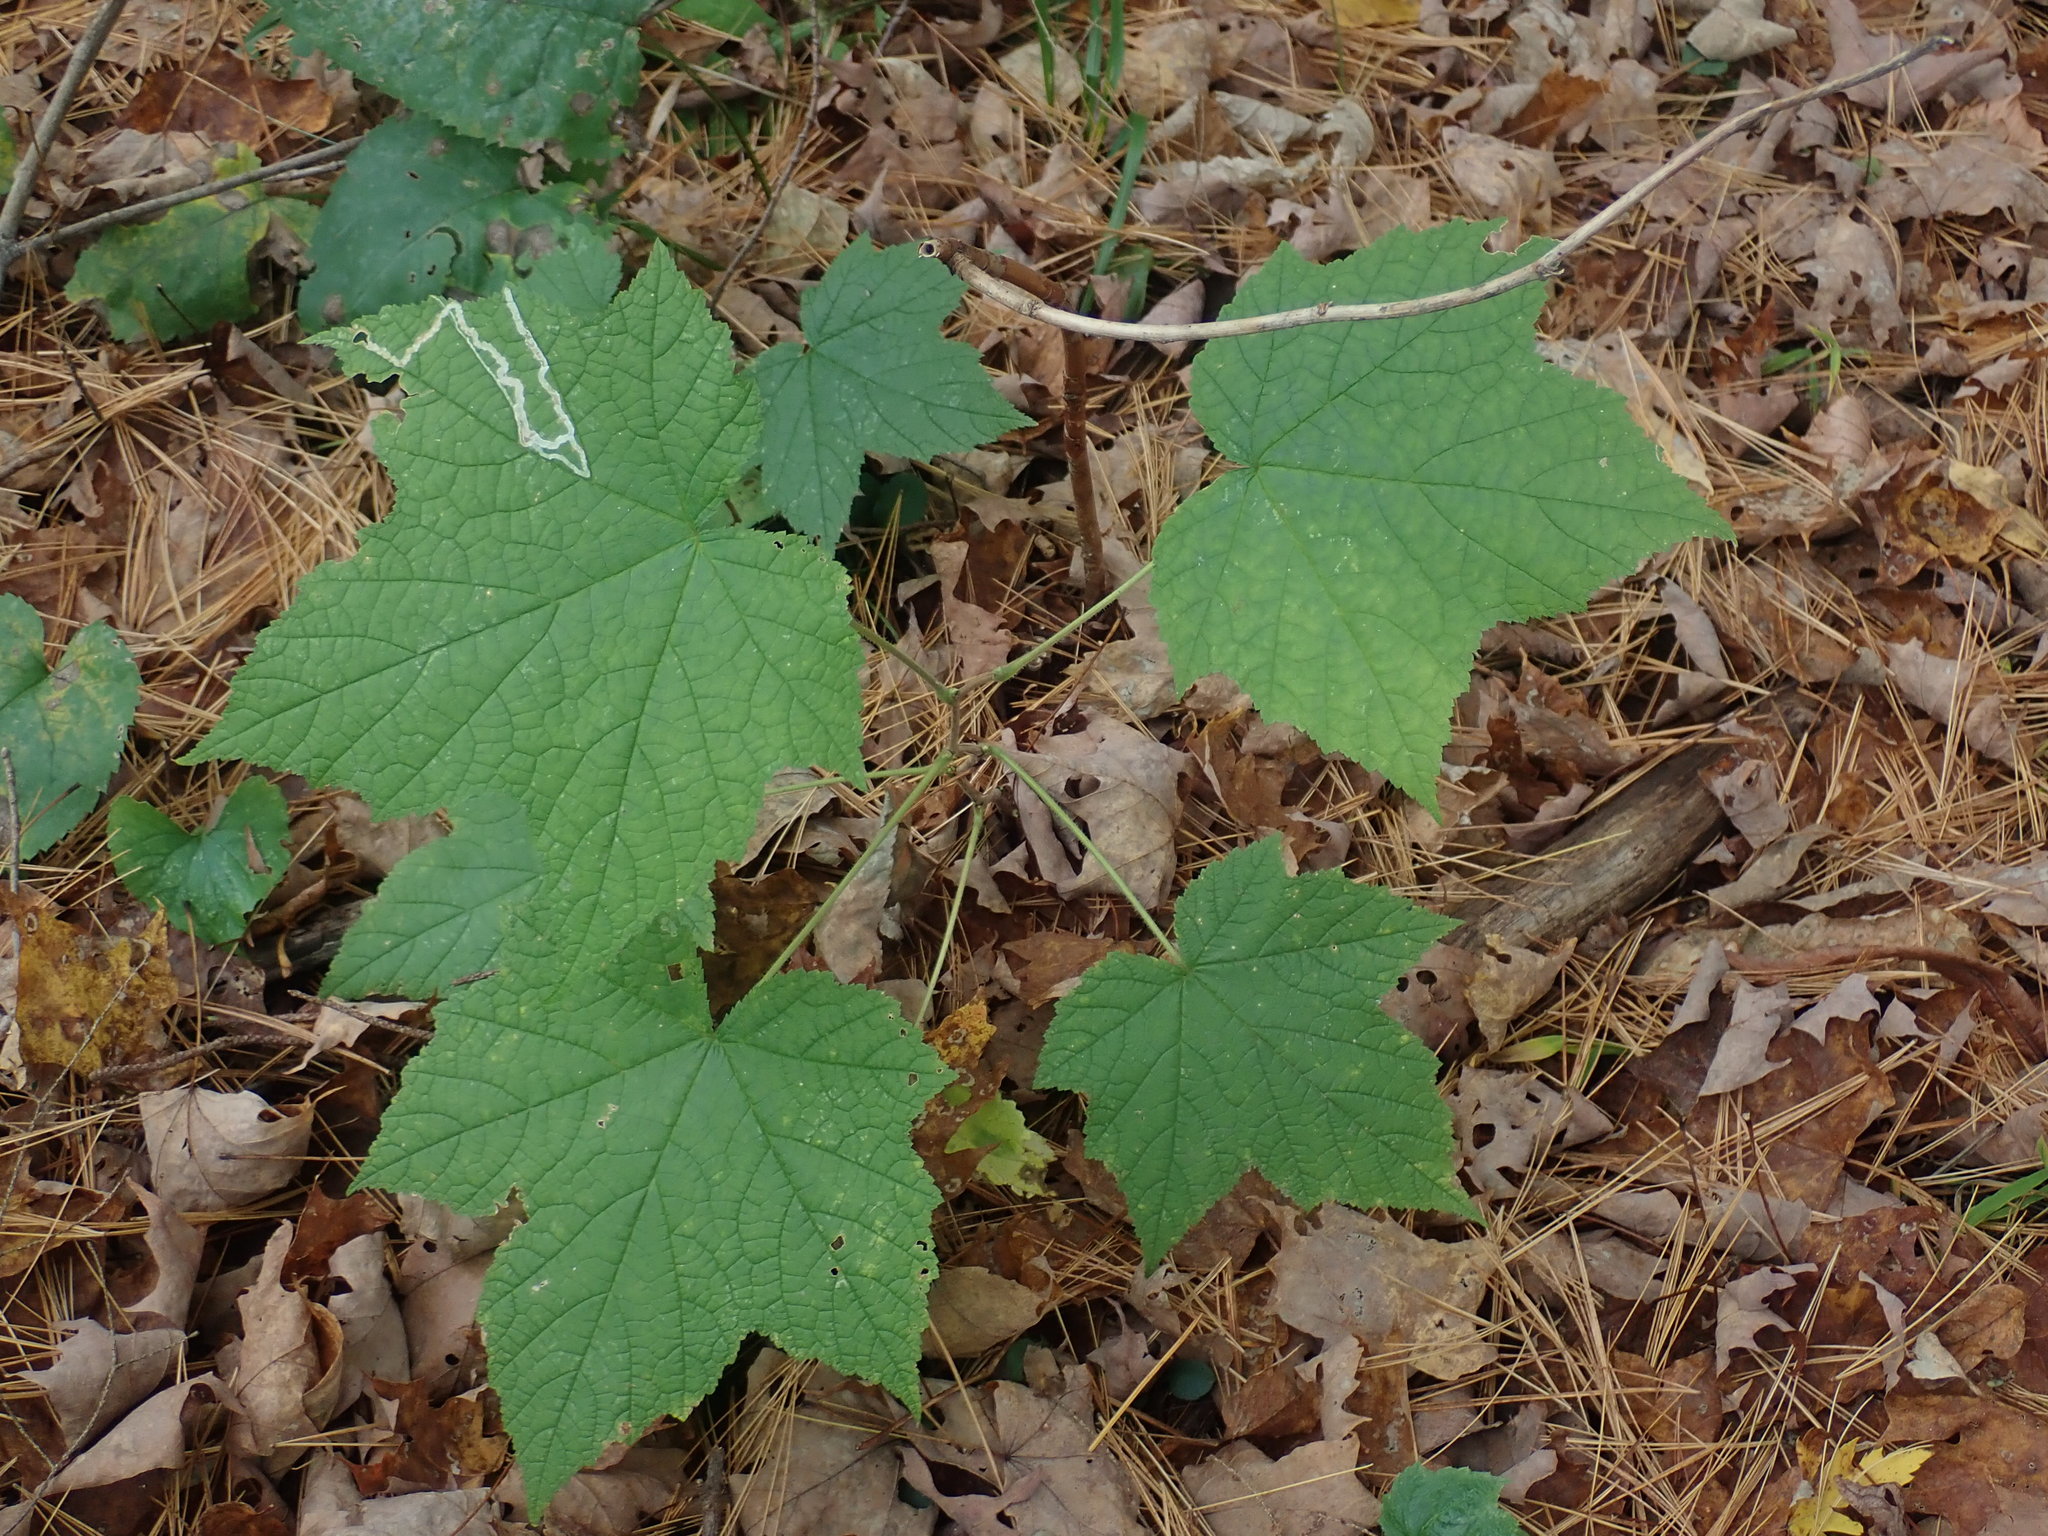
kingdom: Plantae
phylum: Tracheophyta
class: Magnoliopsida
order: Rosales
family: Rosaceae
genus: Rubus
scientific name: Rubus odoratus
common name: Purple-flowered raspberry
